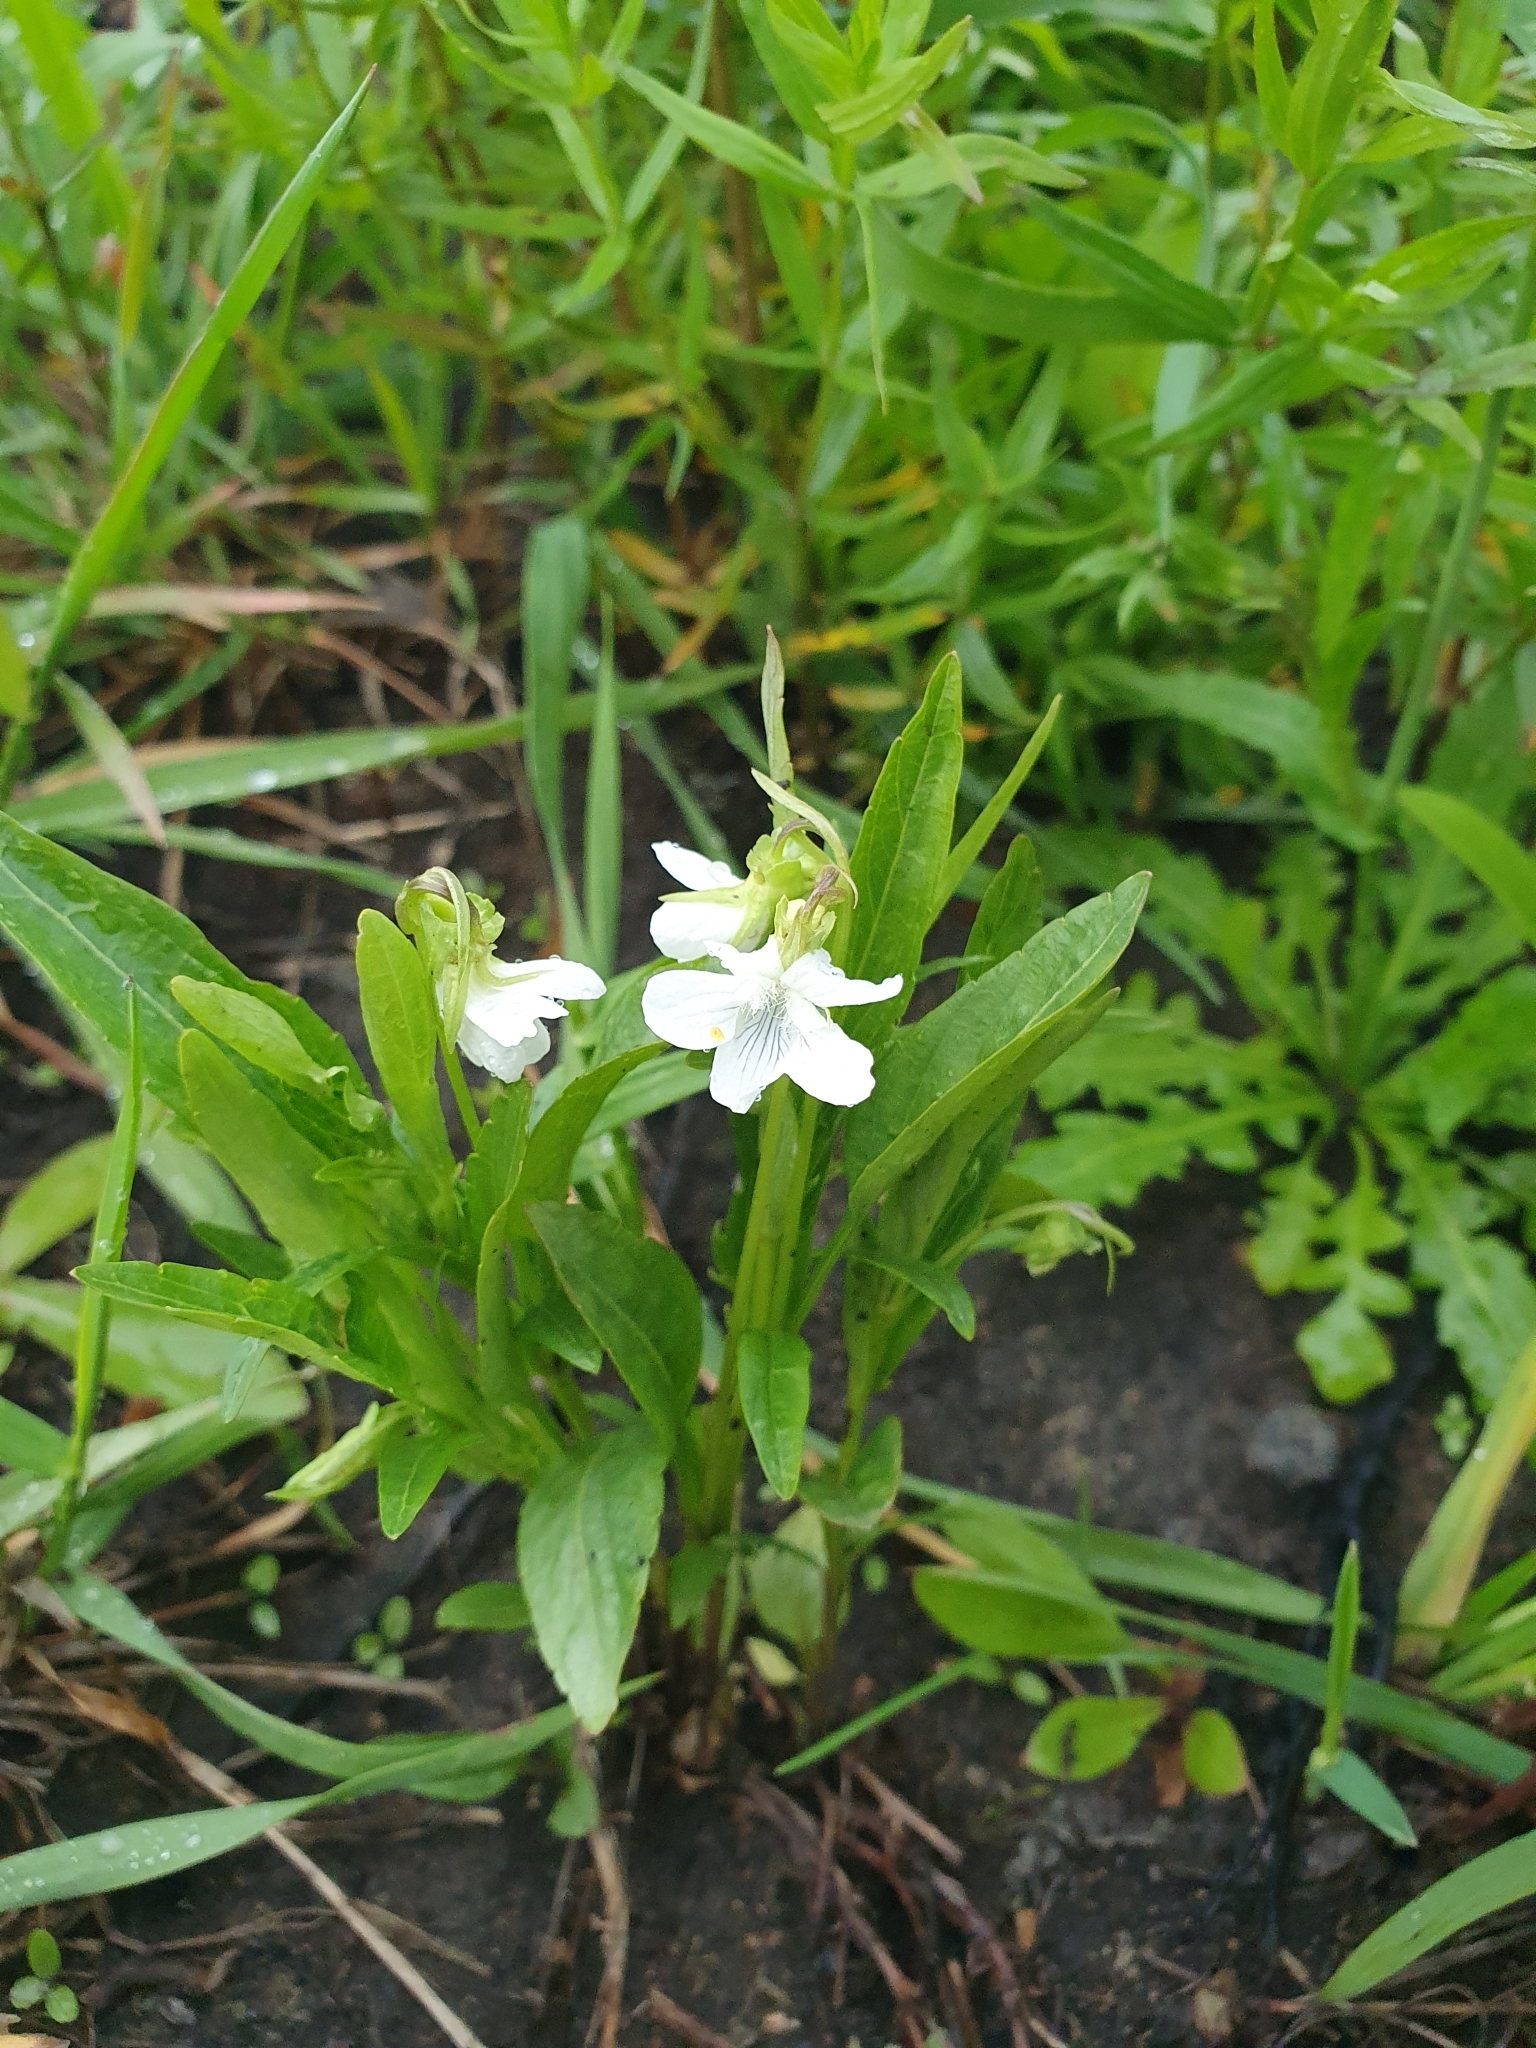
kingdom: Plantae
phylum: Tracheophyta
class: Magnoliopsida
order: Malpighiales
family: Violaceae
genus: Viola
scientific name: Viola pumila
